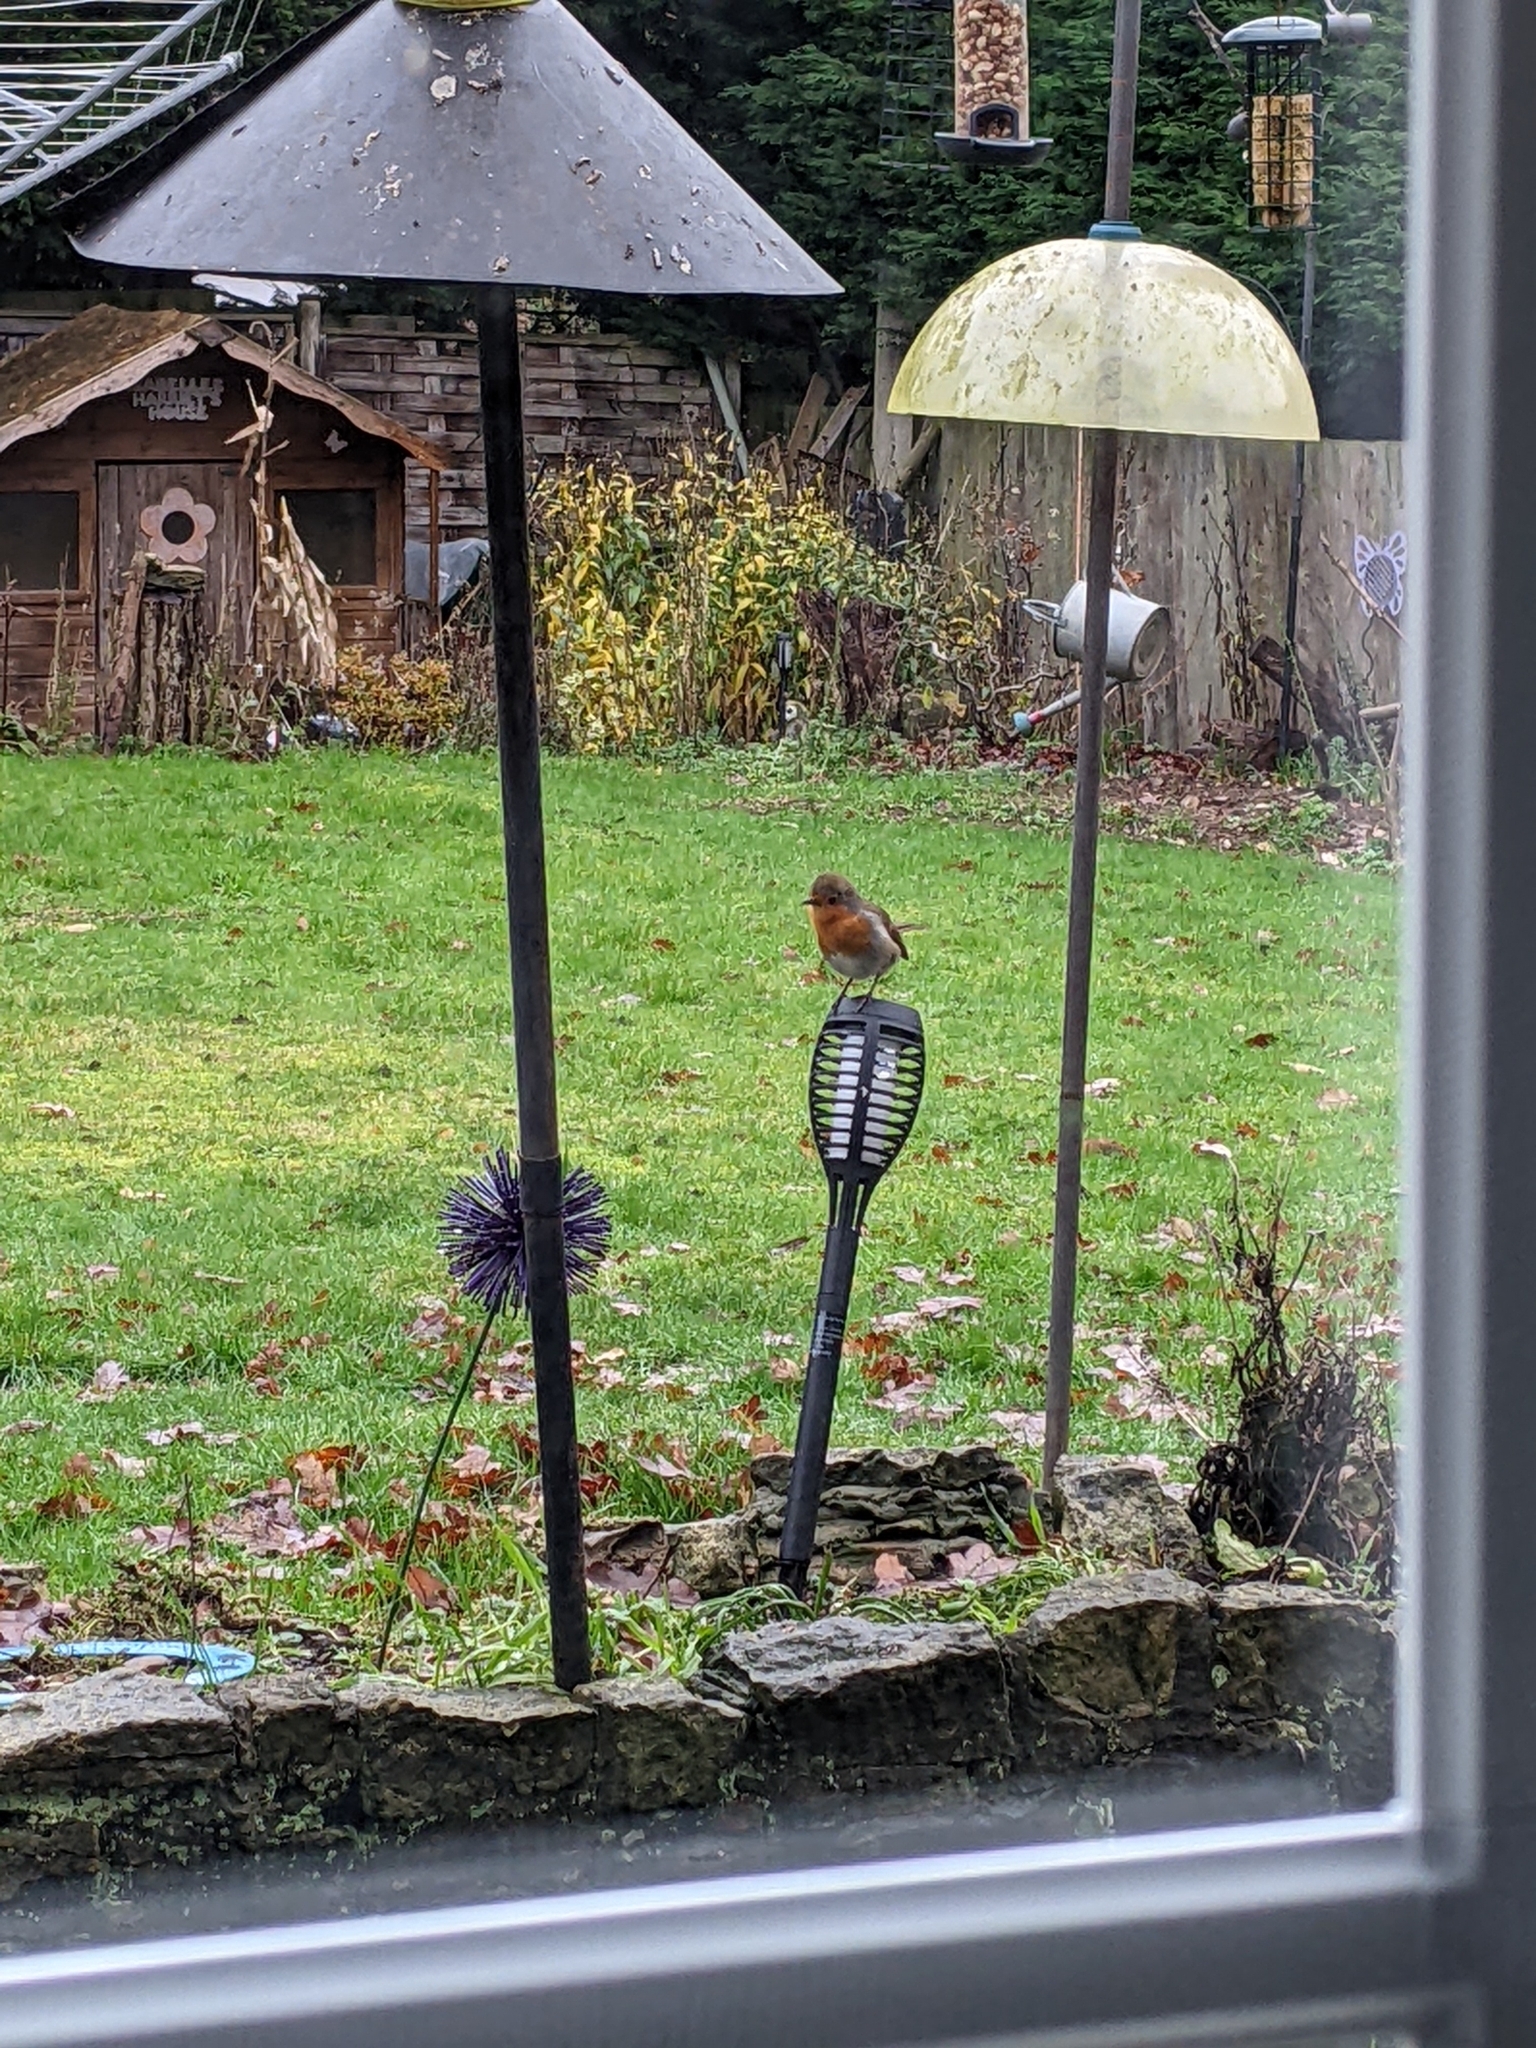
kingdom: Animalia
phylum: Chordata
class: Aves
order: Passeriformes
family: Muscicapidae
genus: Erithacus
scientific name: Erithacus rubecula
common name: European robin
